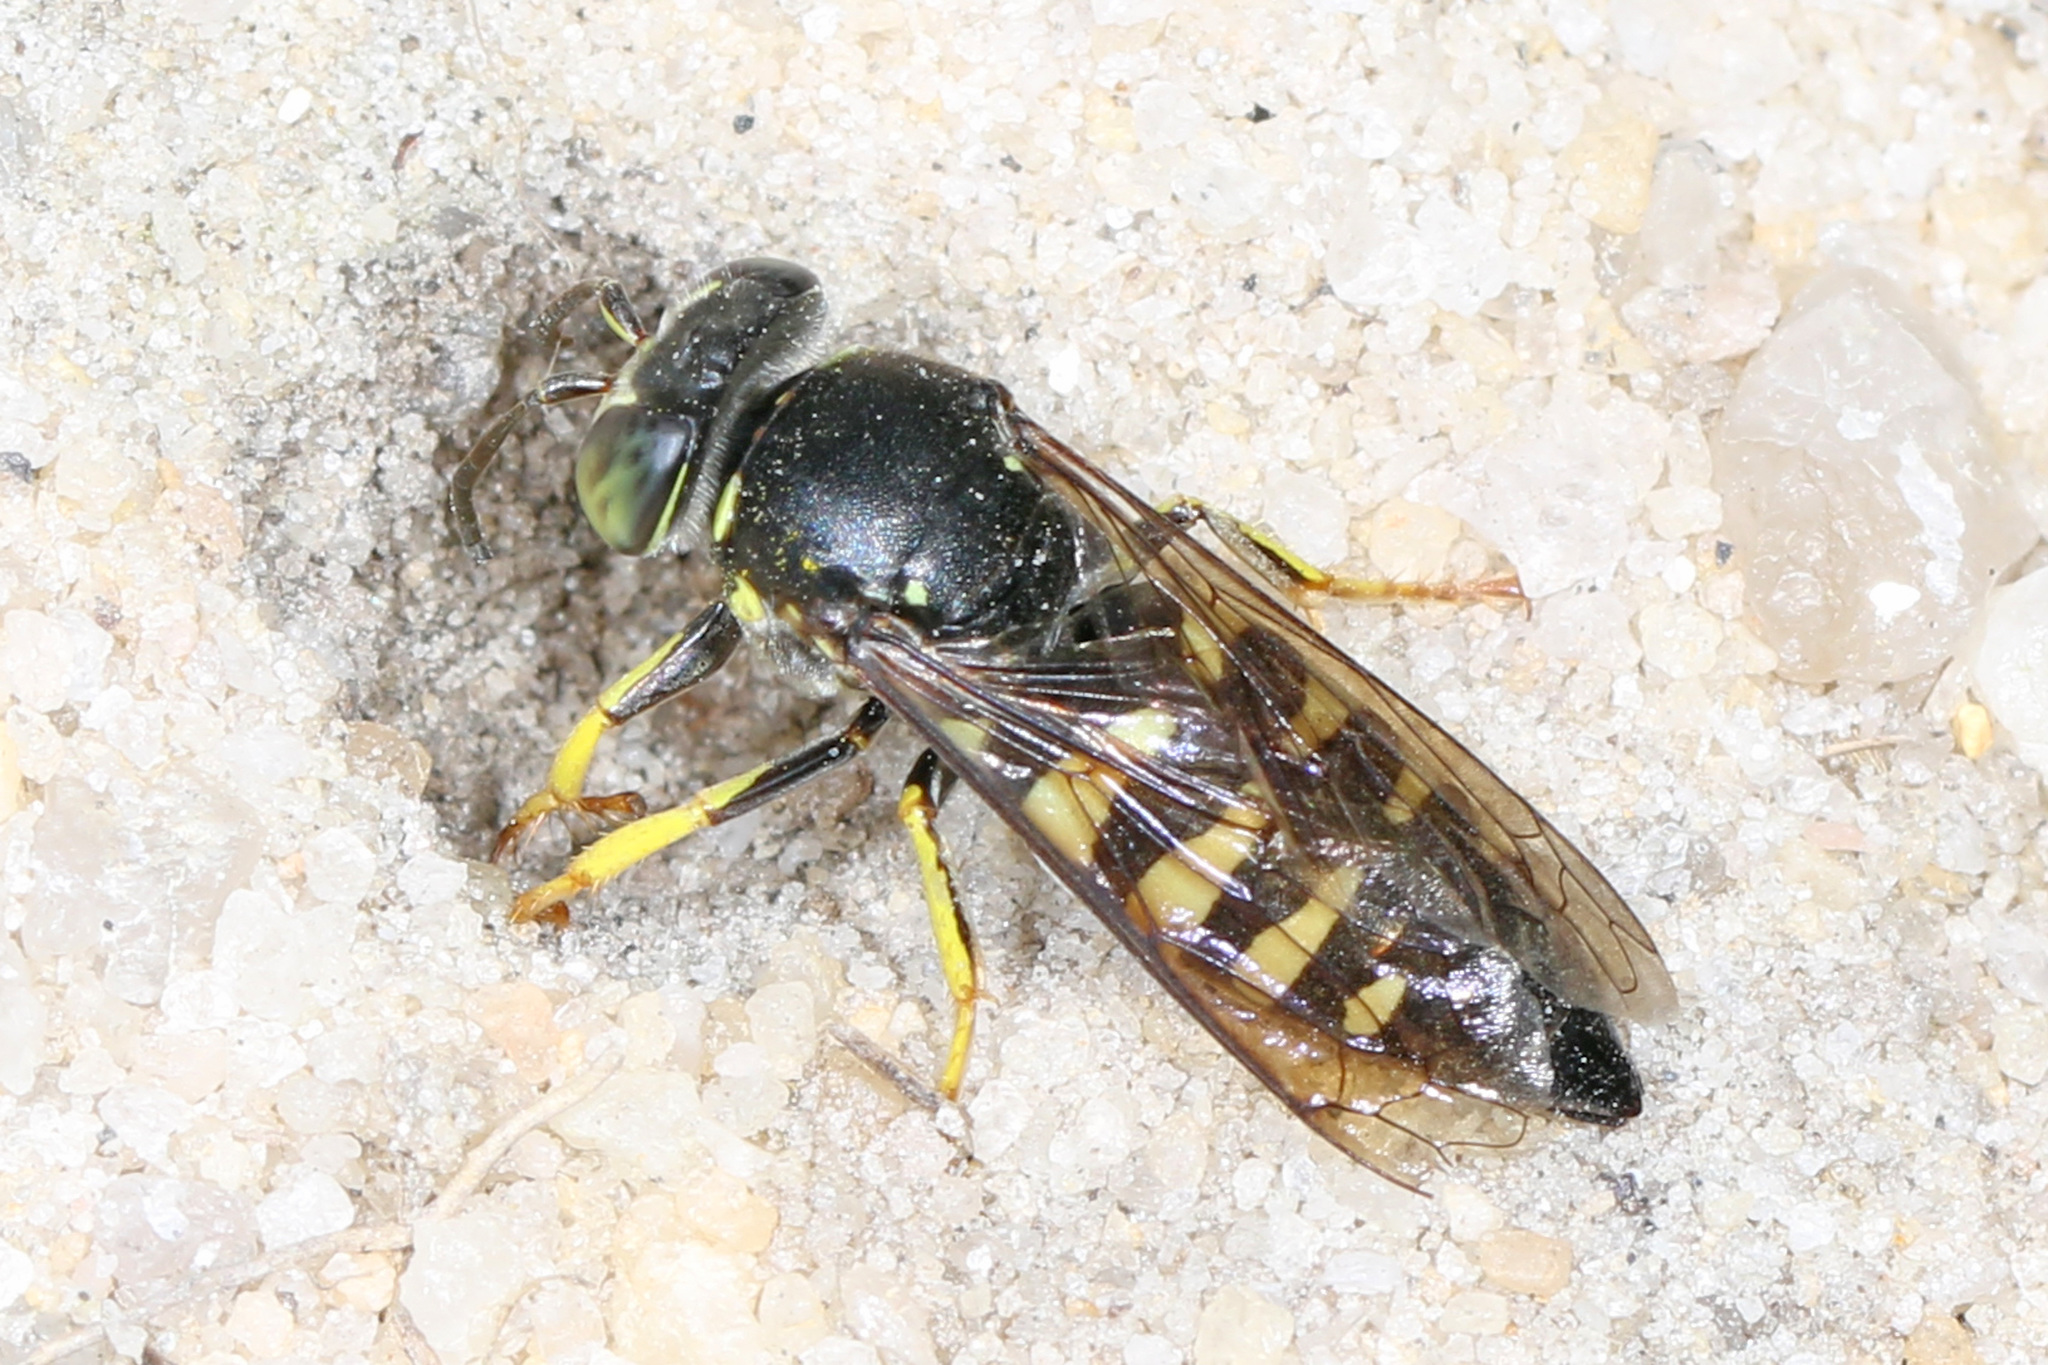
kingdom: Animalia
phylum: Arthropoda
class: Insecta
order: Hymenoptera
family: Crabronidae
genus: Bicyrtes
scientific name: Bicyrtes quadrifasciatus
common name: Four-banded stink bug hunter wasp
